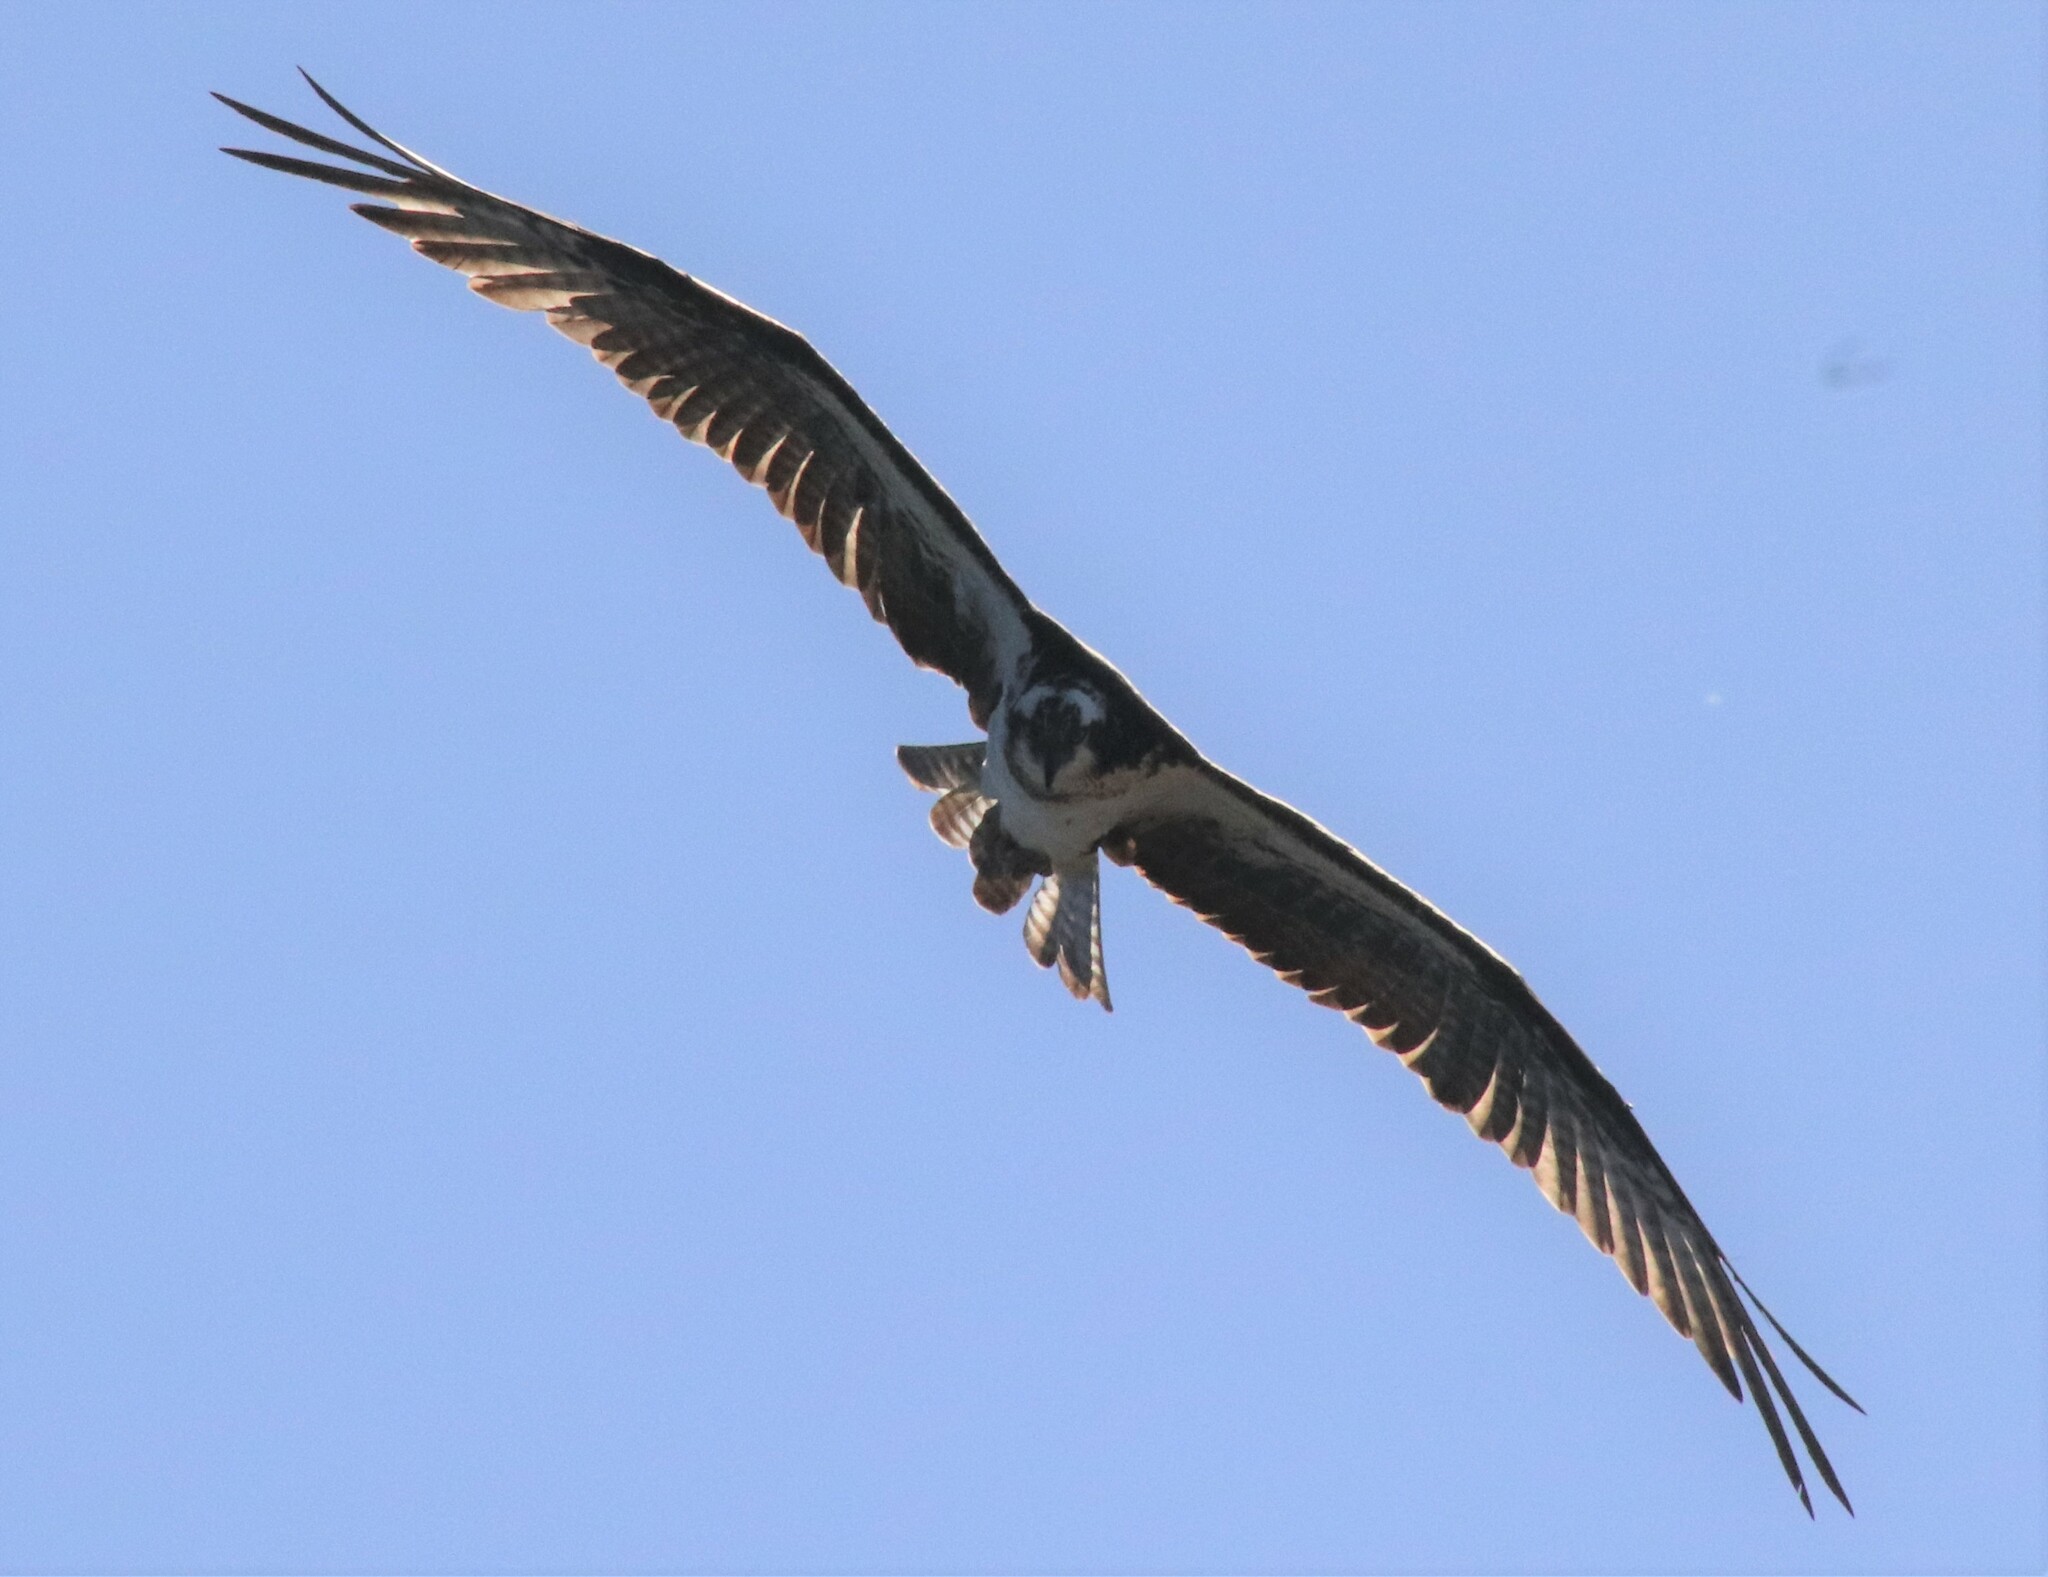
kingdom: Animalia
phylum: Chordata
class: Aves
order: Accipitriformes
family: Pandionidae
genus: Pandion
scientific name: Pandion haliaetus
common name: Osprey
